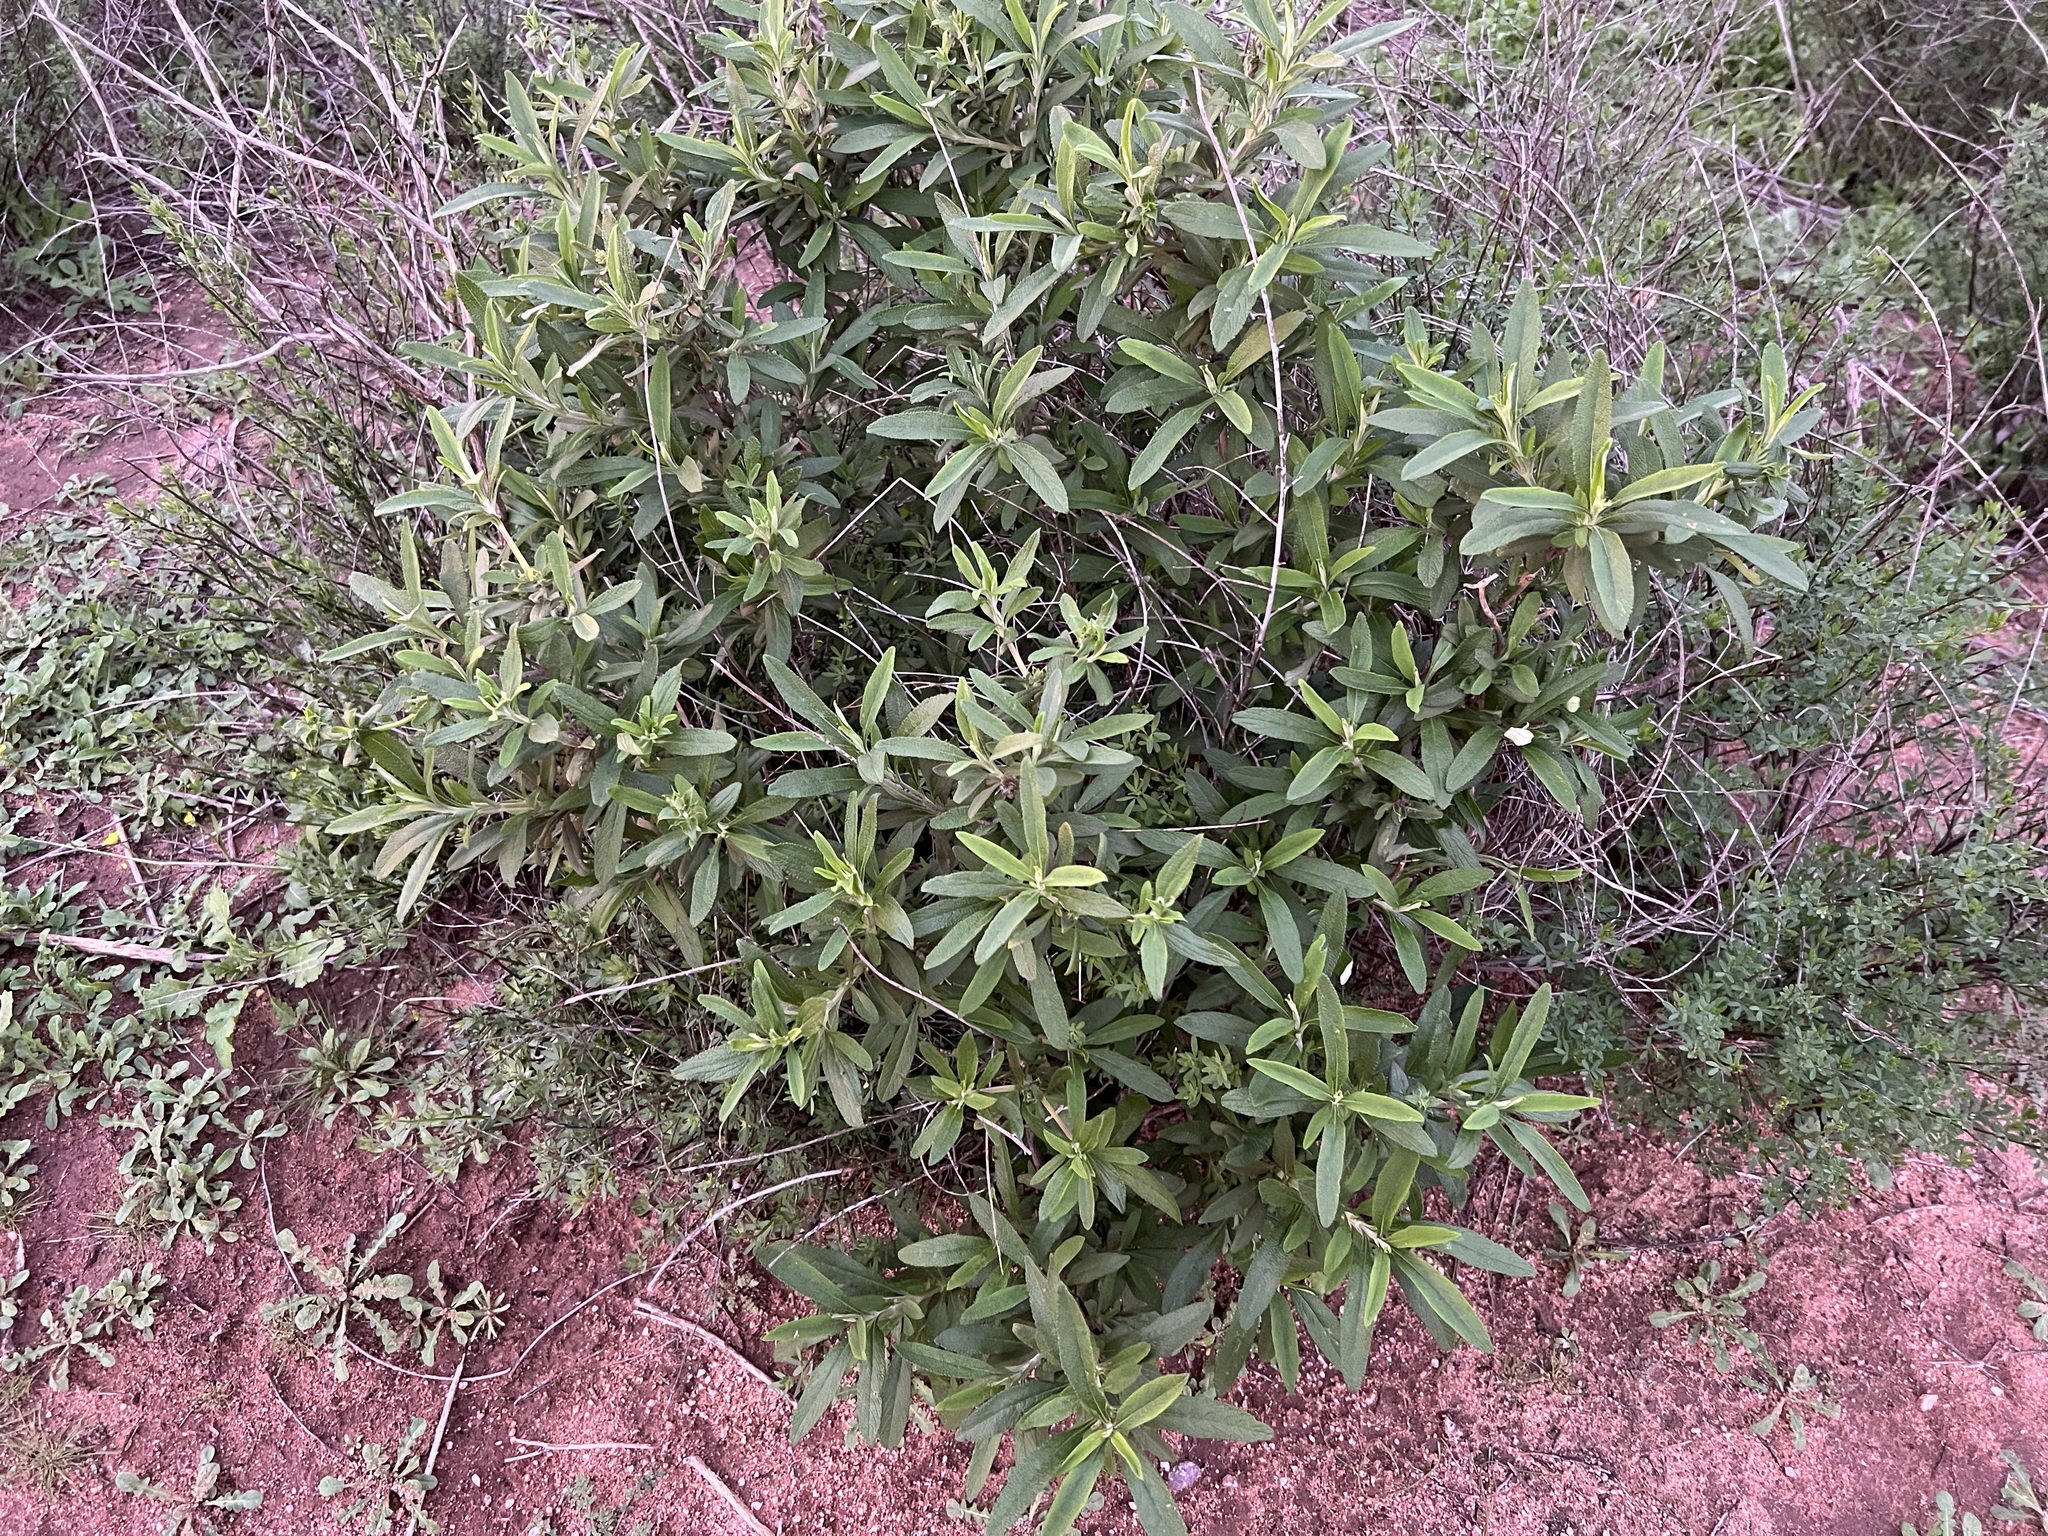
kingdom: Plantae
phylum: Tracheophyta
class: Magnoliopsida
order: Lamiales
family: Lamiaceae
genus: Salvia
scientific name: Salvia mellifera
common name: Black sage
